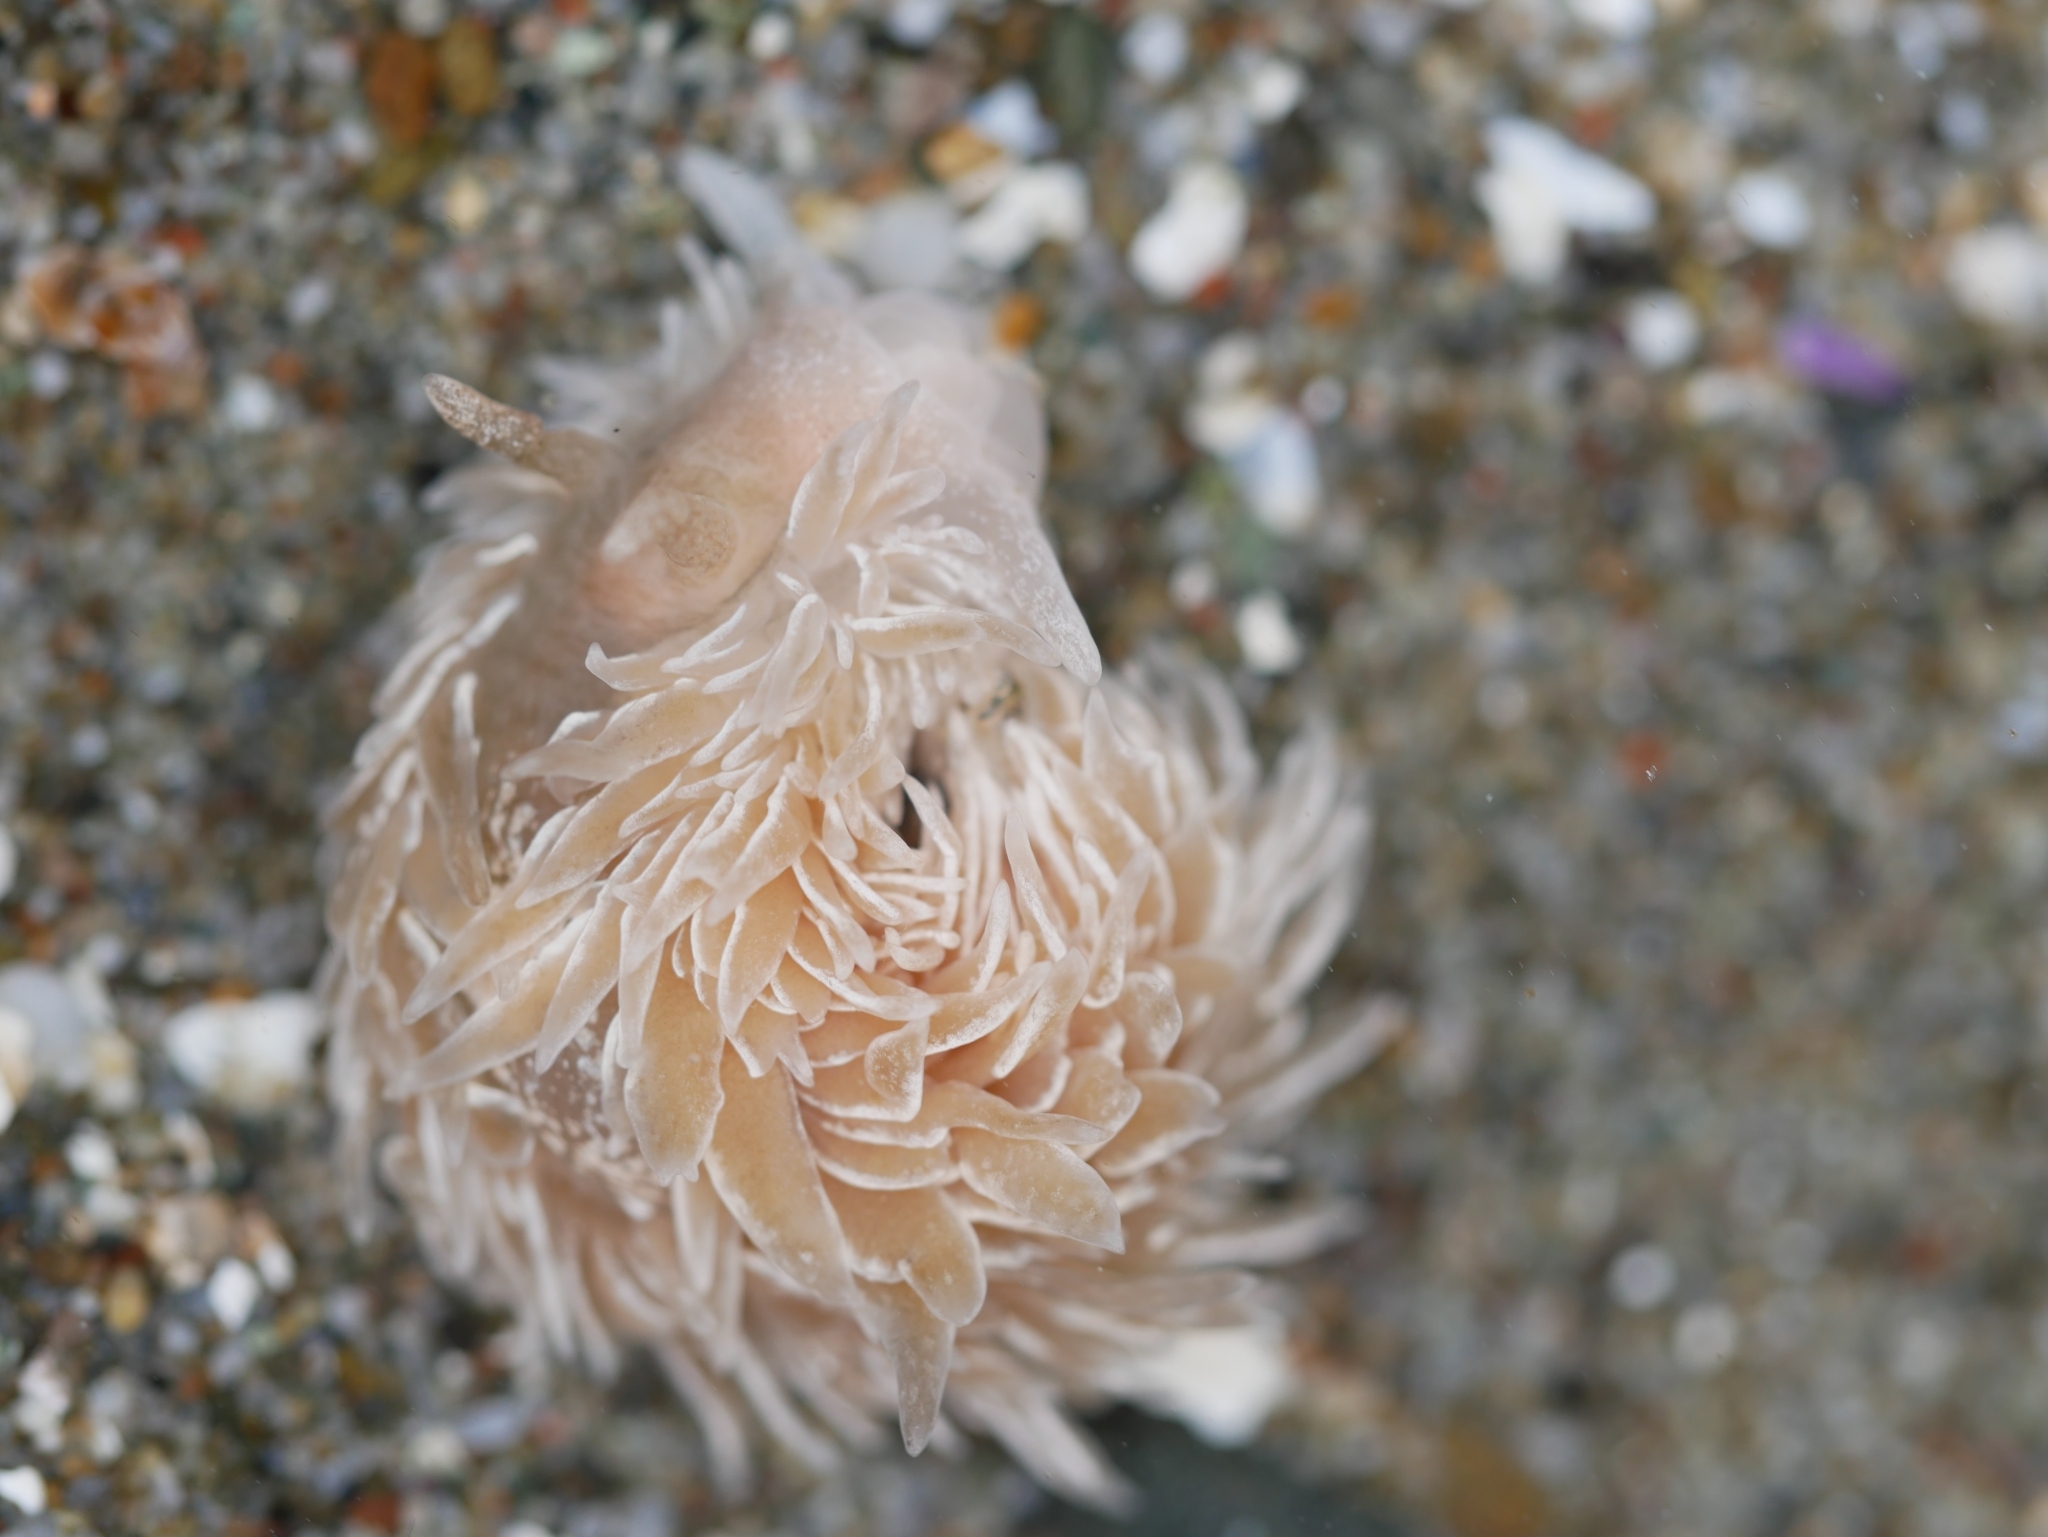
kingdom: Animalia
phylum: Mollusca
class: Gastropoda
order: Nudibranchia
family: Aeolidiidae
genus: Aeolidia
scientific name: Aeolidia loui
